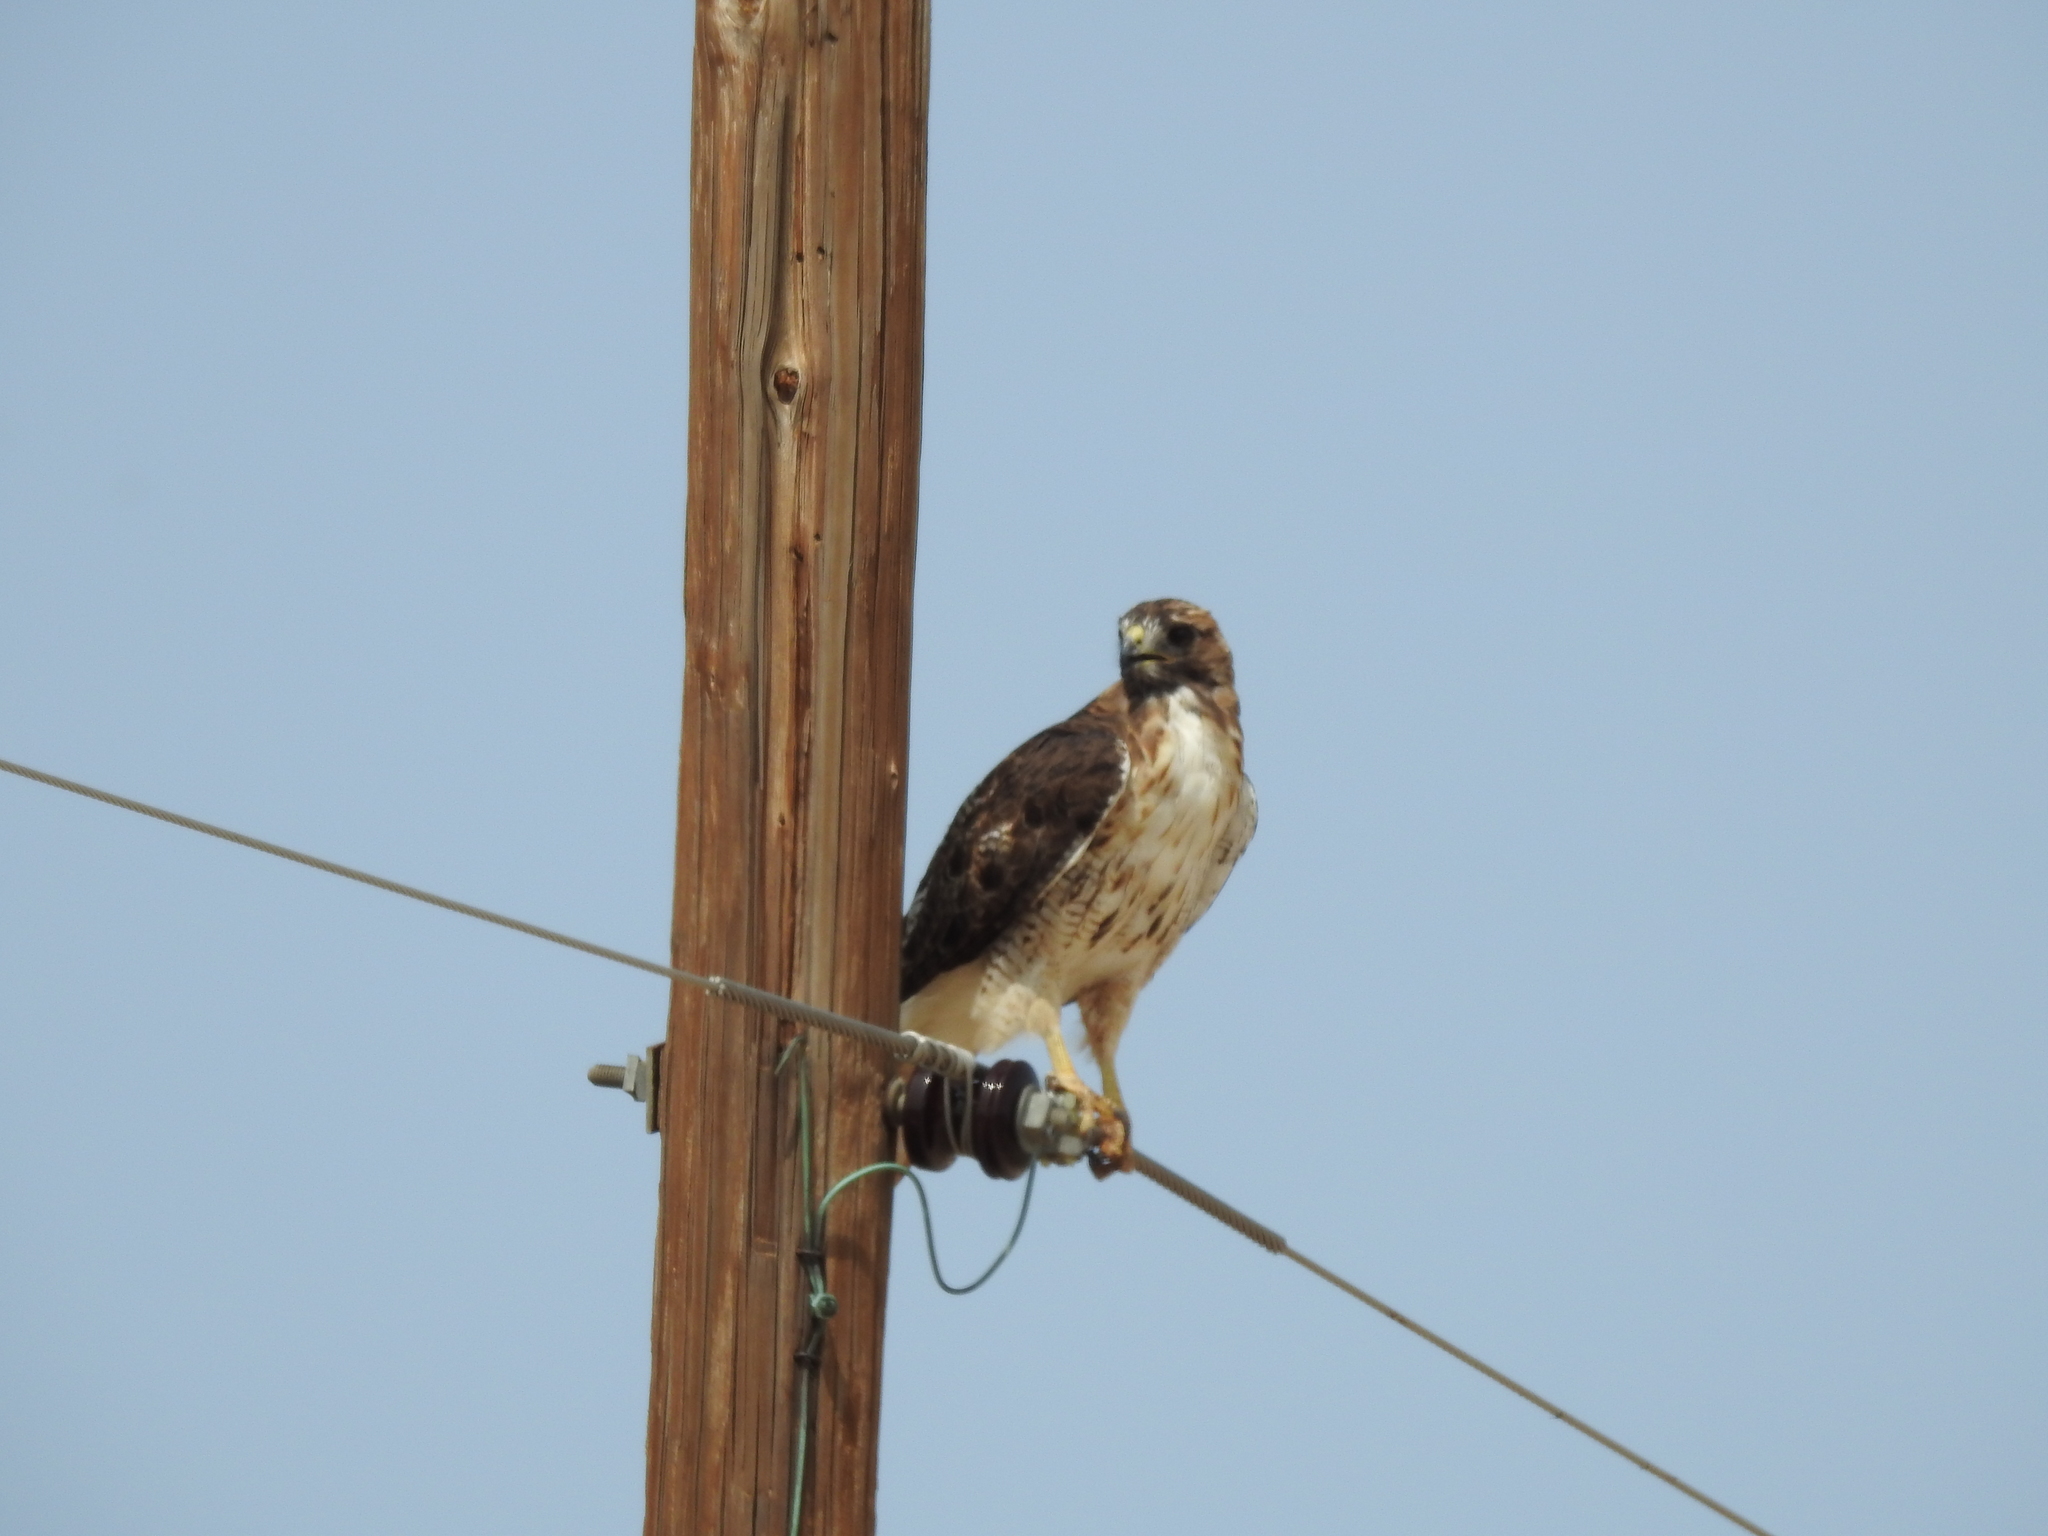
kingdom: Animalia
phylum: Chordata
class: Aves
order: Accipitriformes
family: Accipitridae
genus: Buteo
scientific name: Buteo jamaicensis
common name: Red-tailed hawk
